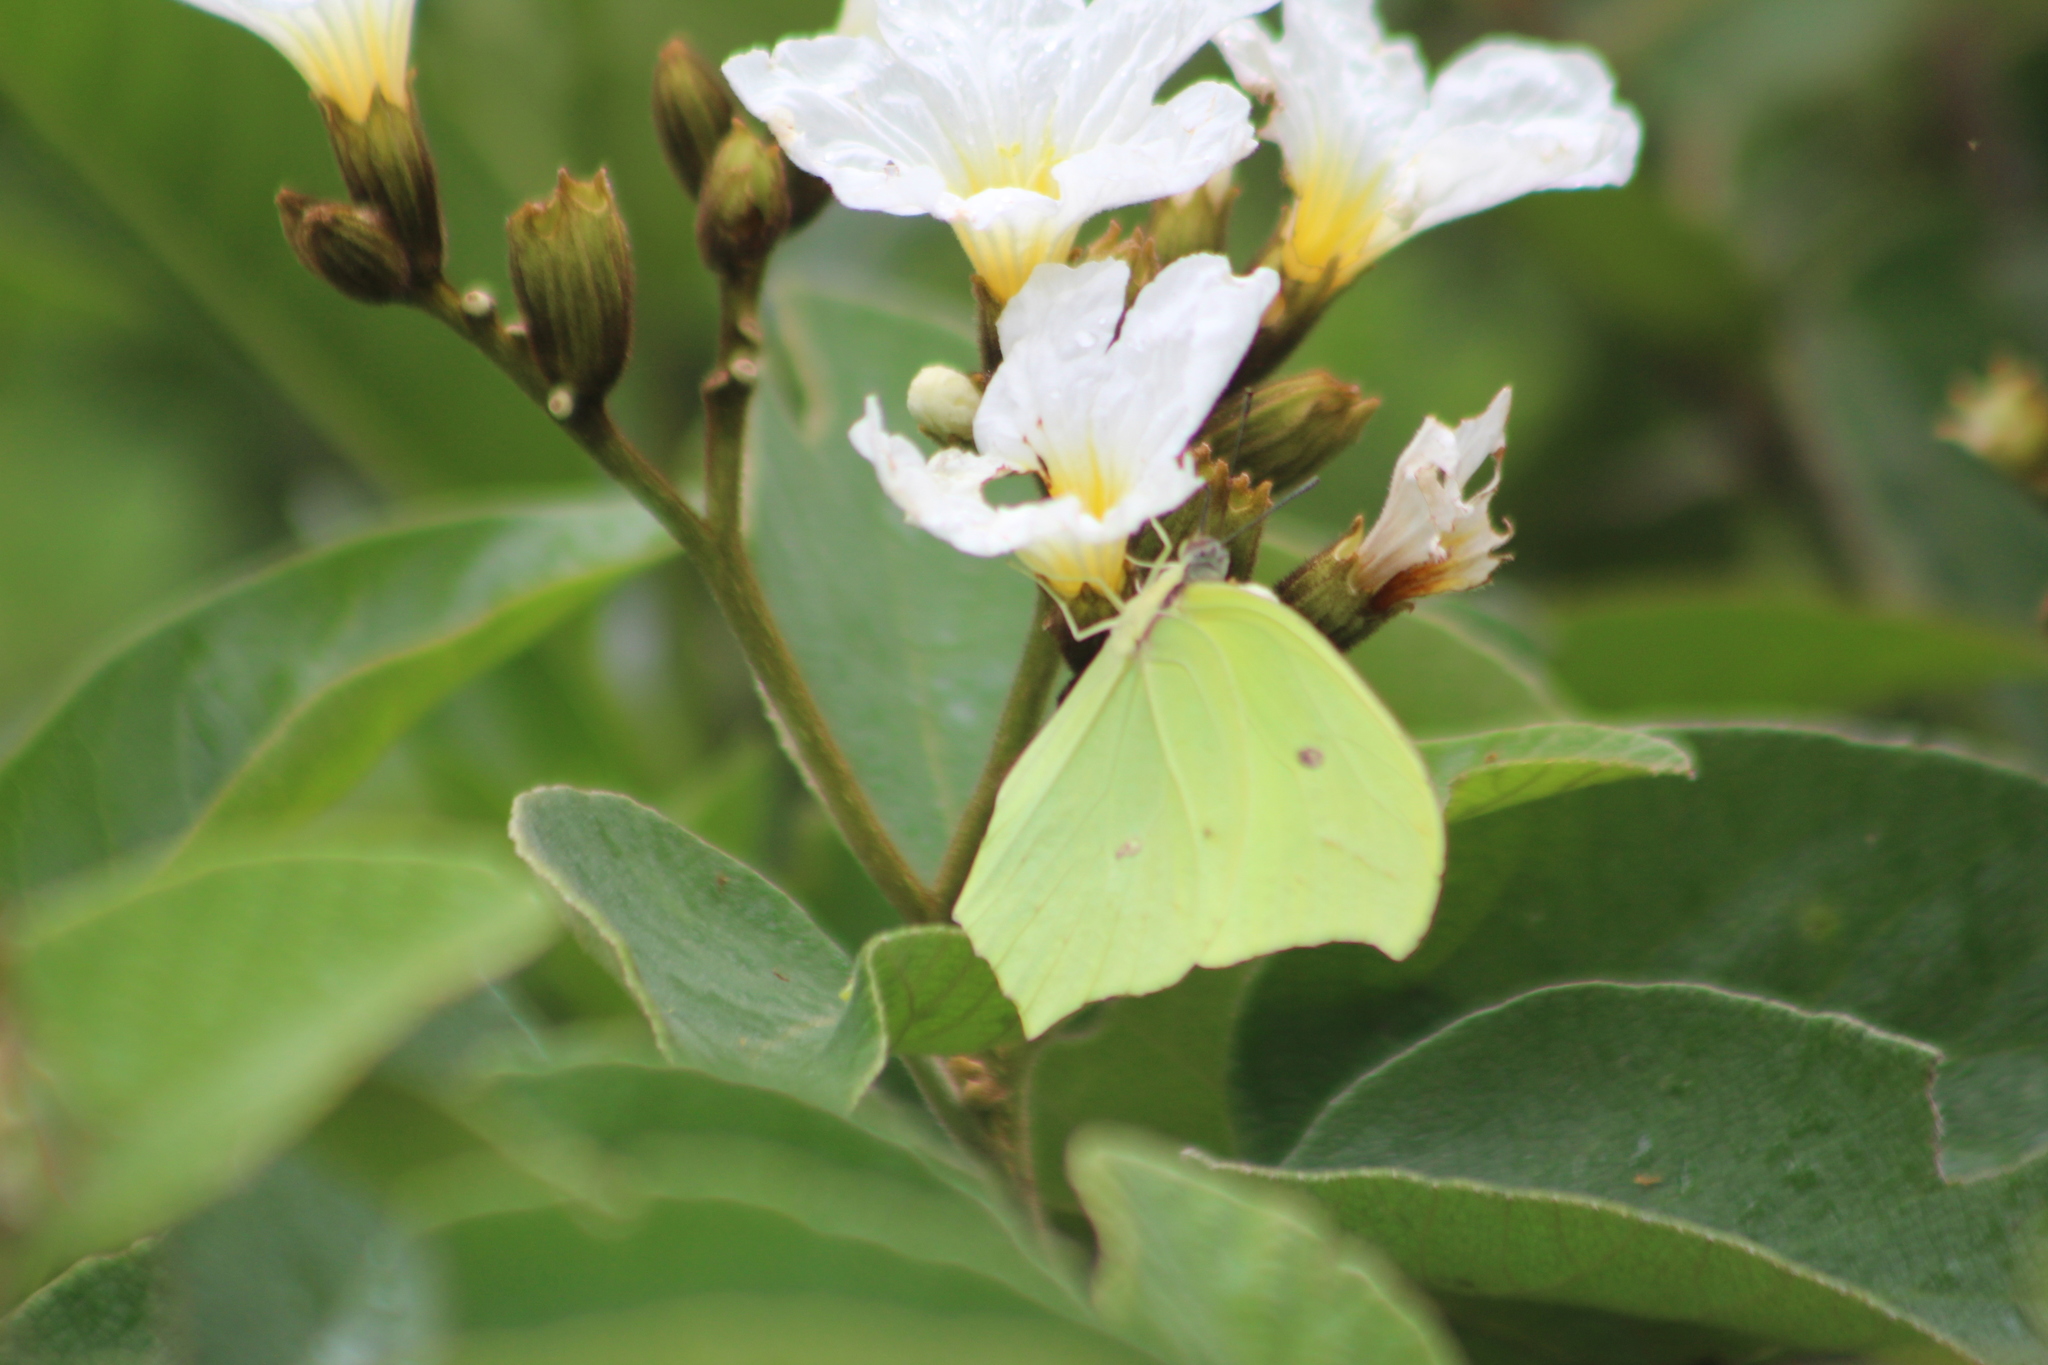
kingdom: Animalia
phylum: Arthropoda
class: Insecta
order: Lepidoptera
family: Pieridae
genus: Anteos
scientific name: Anteos maerula
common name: Angled sulphur
